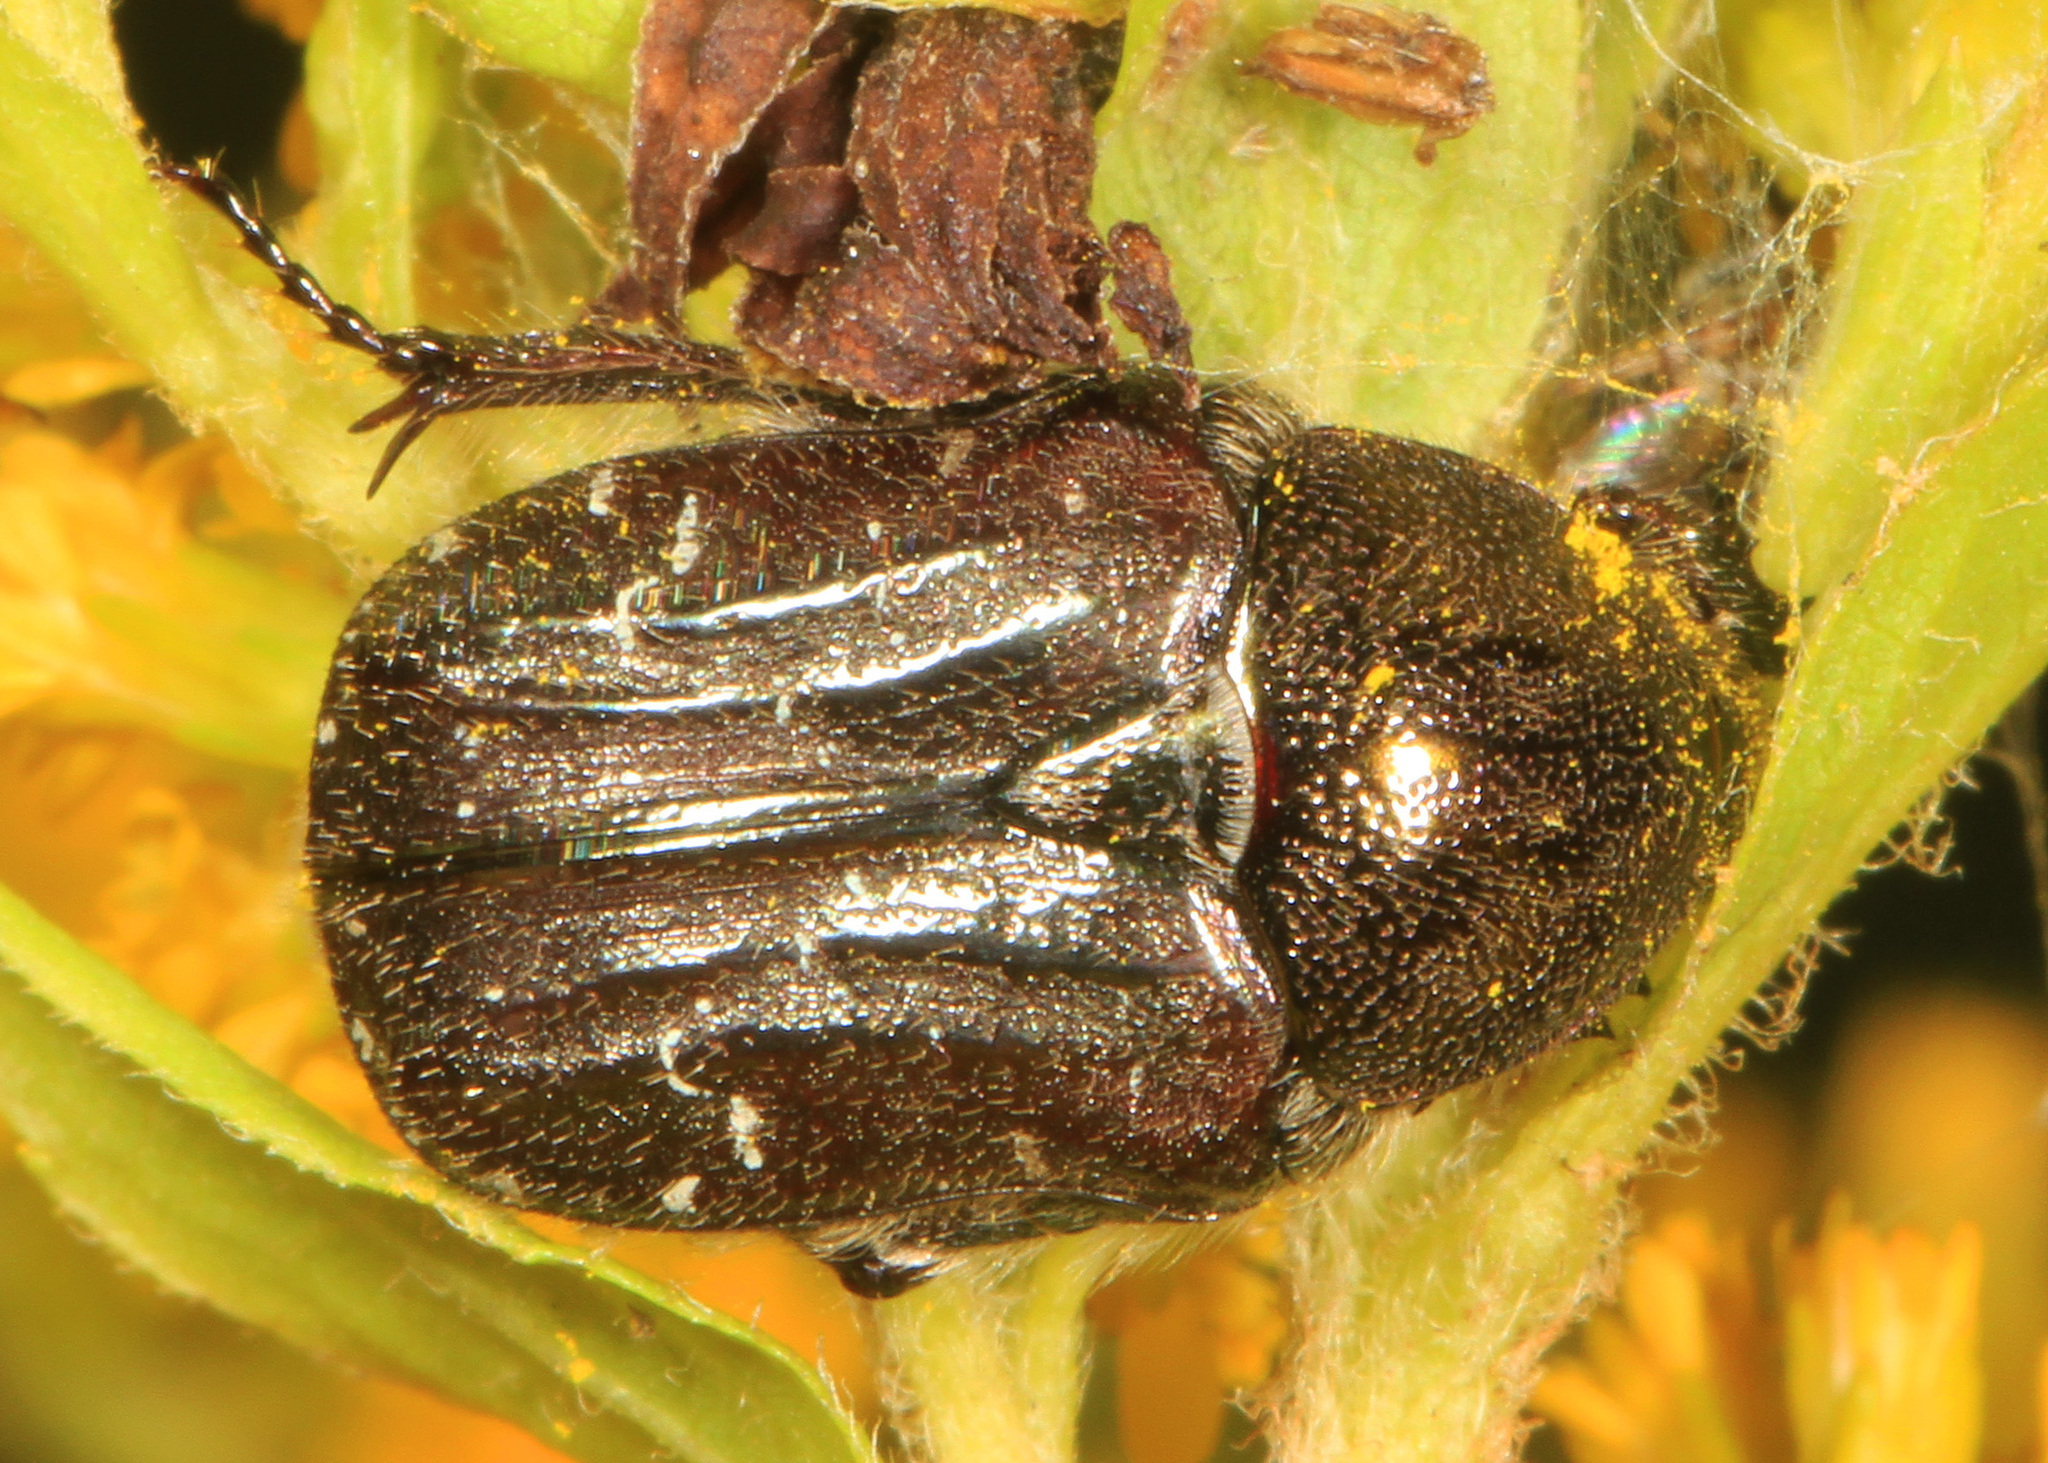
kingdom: Animalia
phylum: Arthropoda
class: Insecta
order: Coleoptera
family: Scarabaeidae
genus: Euphoria
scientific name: Euphoria sepulcralis
